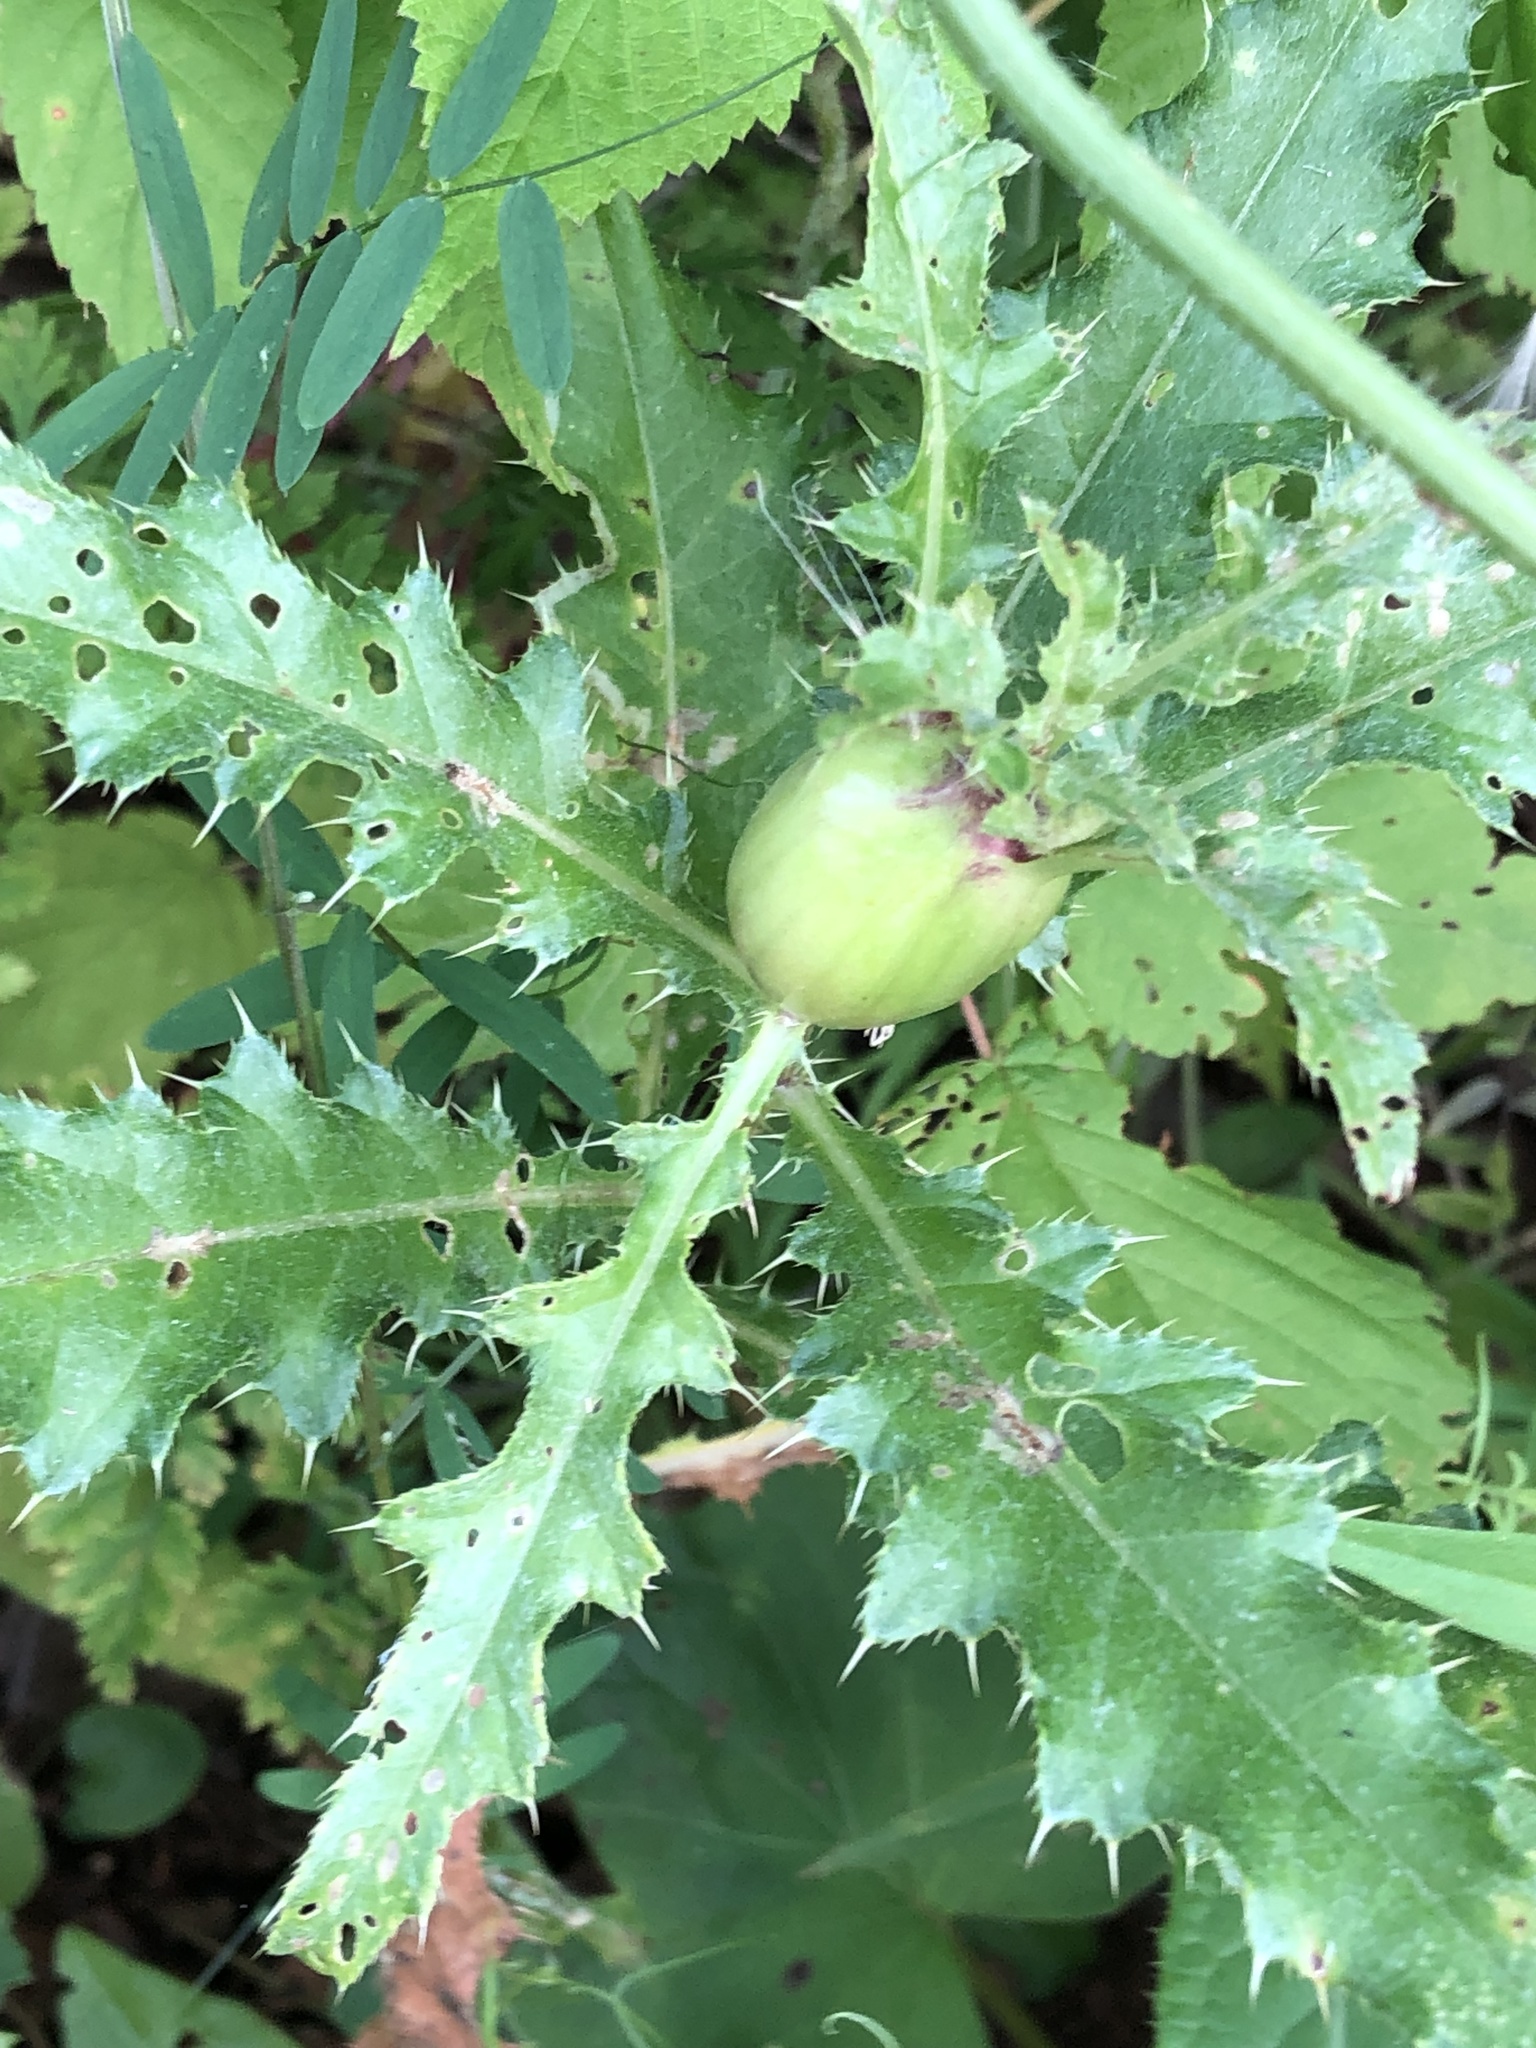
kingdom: Animalia
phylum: Arthropoda
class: Insecta
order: Diptera
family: Tephritidae
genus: Urophora
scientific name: Urophora cardui
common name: Fruit fly
